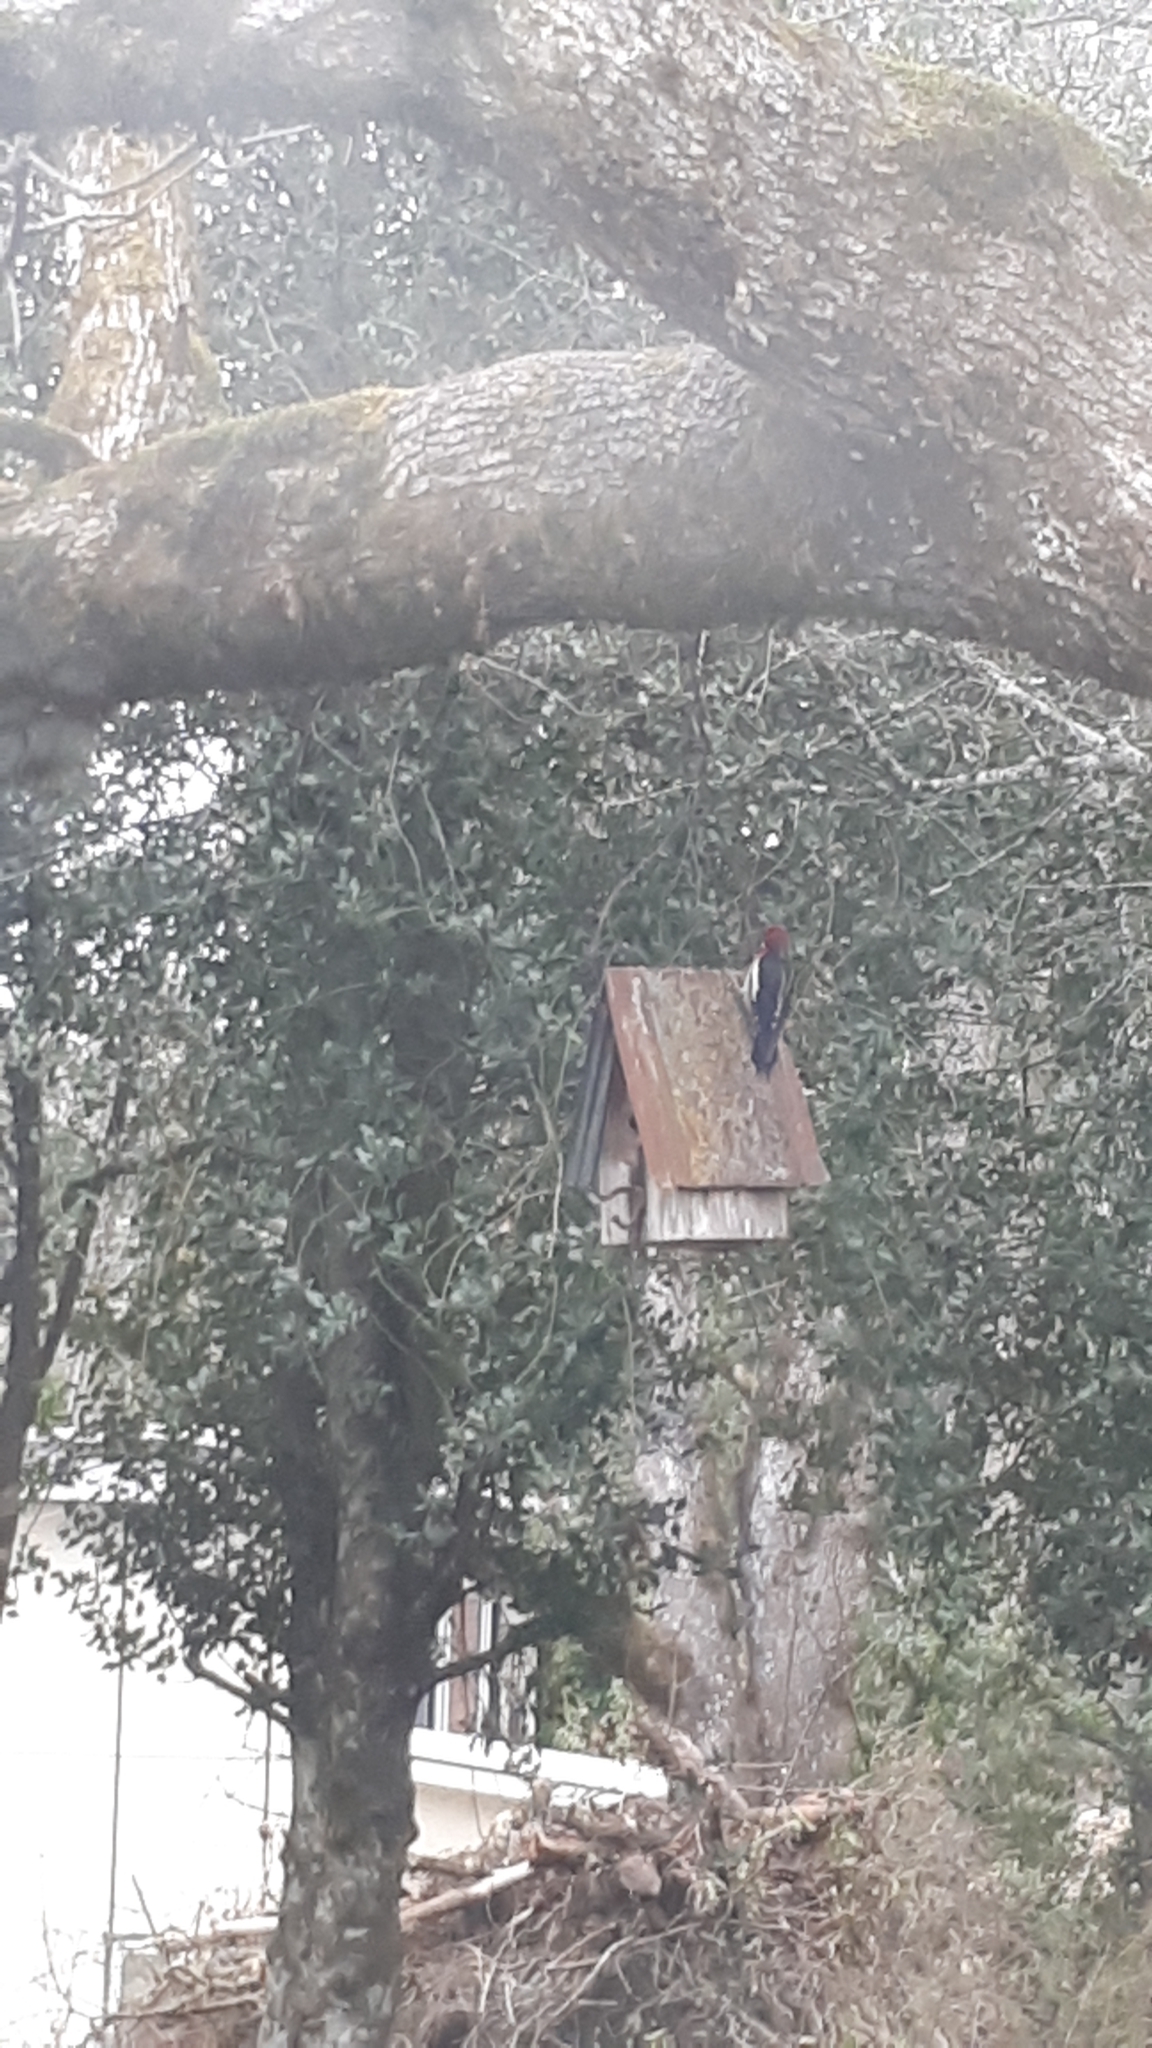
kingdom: Animalia
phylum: Chordata
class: Aves
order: Piciformes
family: Picidae
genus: Sphyrapicus
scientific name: Sphyrapicus ruber
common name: Red-breasted sapsucker
